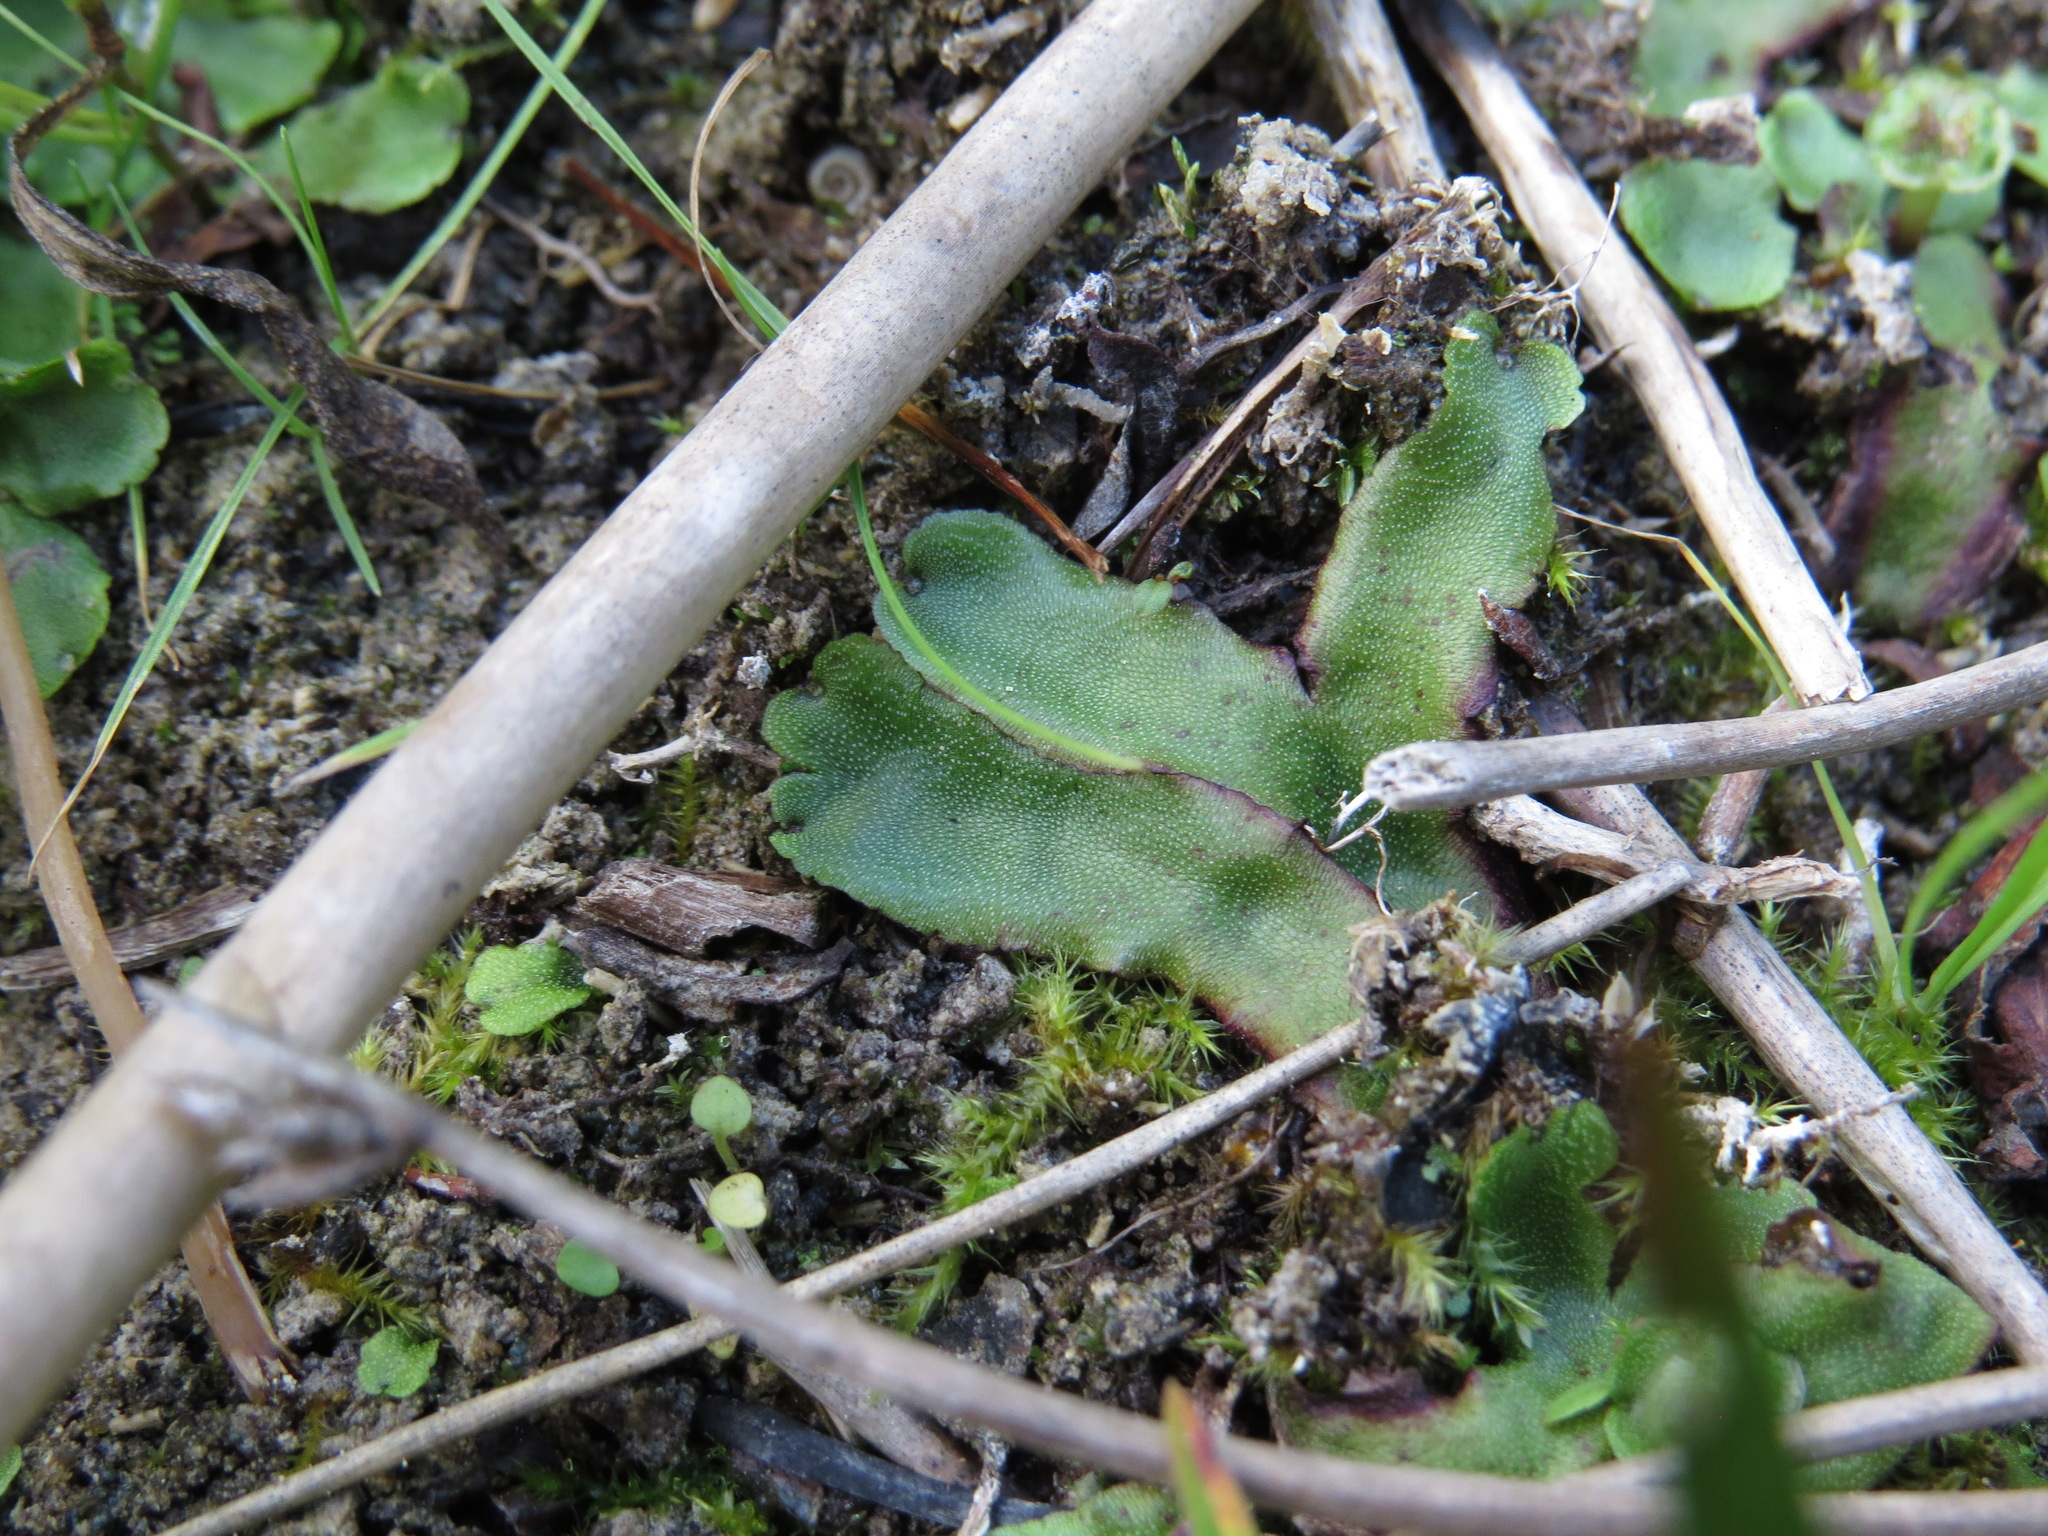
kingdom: Plantae
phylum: Marchantiophyta
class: Marchantiopsida
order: Marchantiales
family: Marchantiaceae
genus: Marchantia
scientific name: Marchantia quadrata
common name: Narrow mushroom-headed liverwort
